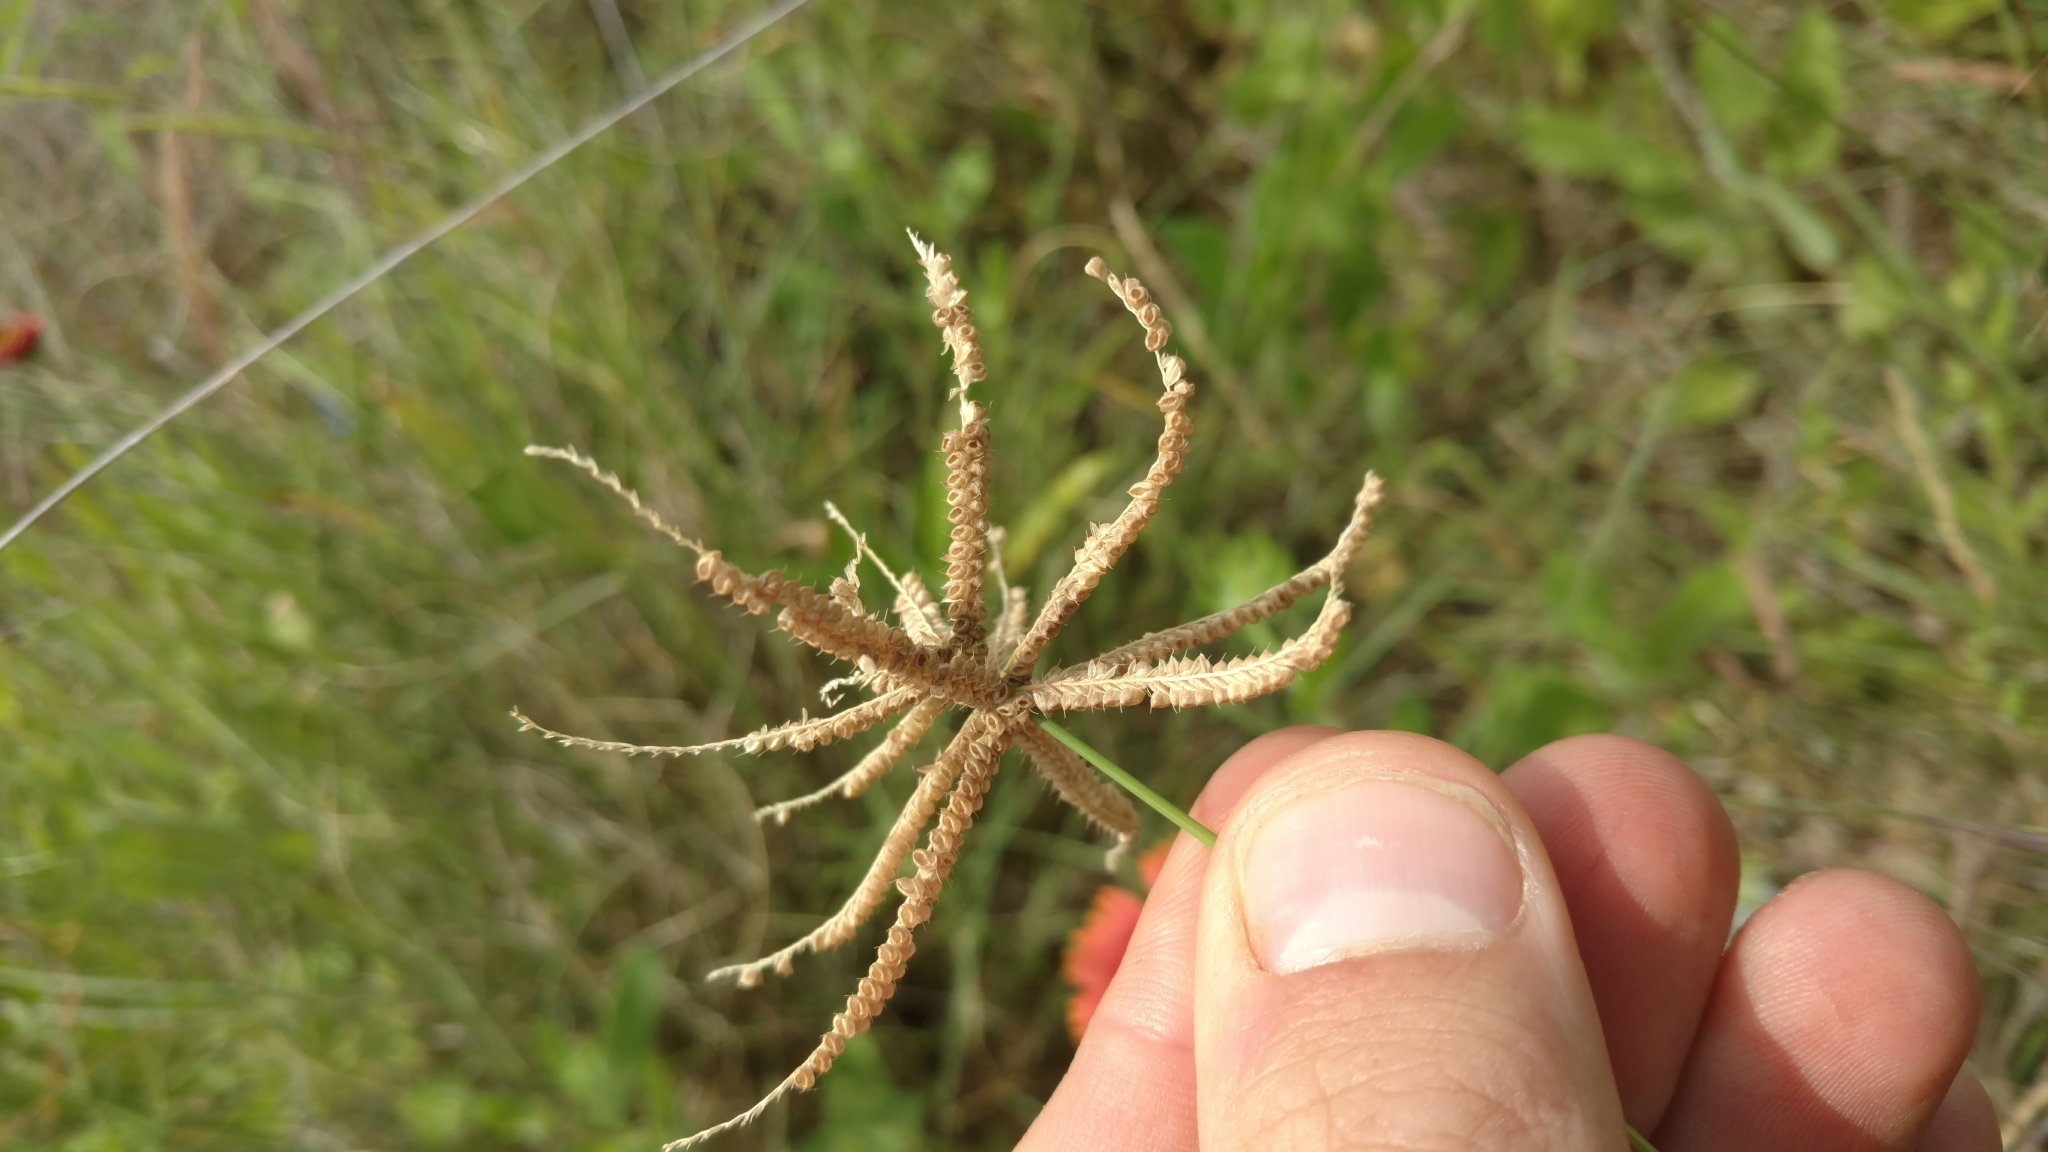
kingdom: Plantae
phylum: Tracheophyta
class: Liliopsida
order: Poales
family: Poaceae
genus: Chloris
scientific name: Chloris cucullata
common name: Hooded windmill grass
